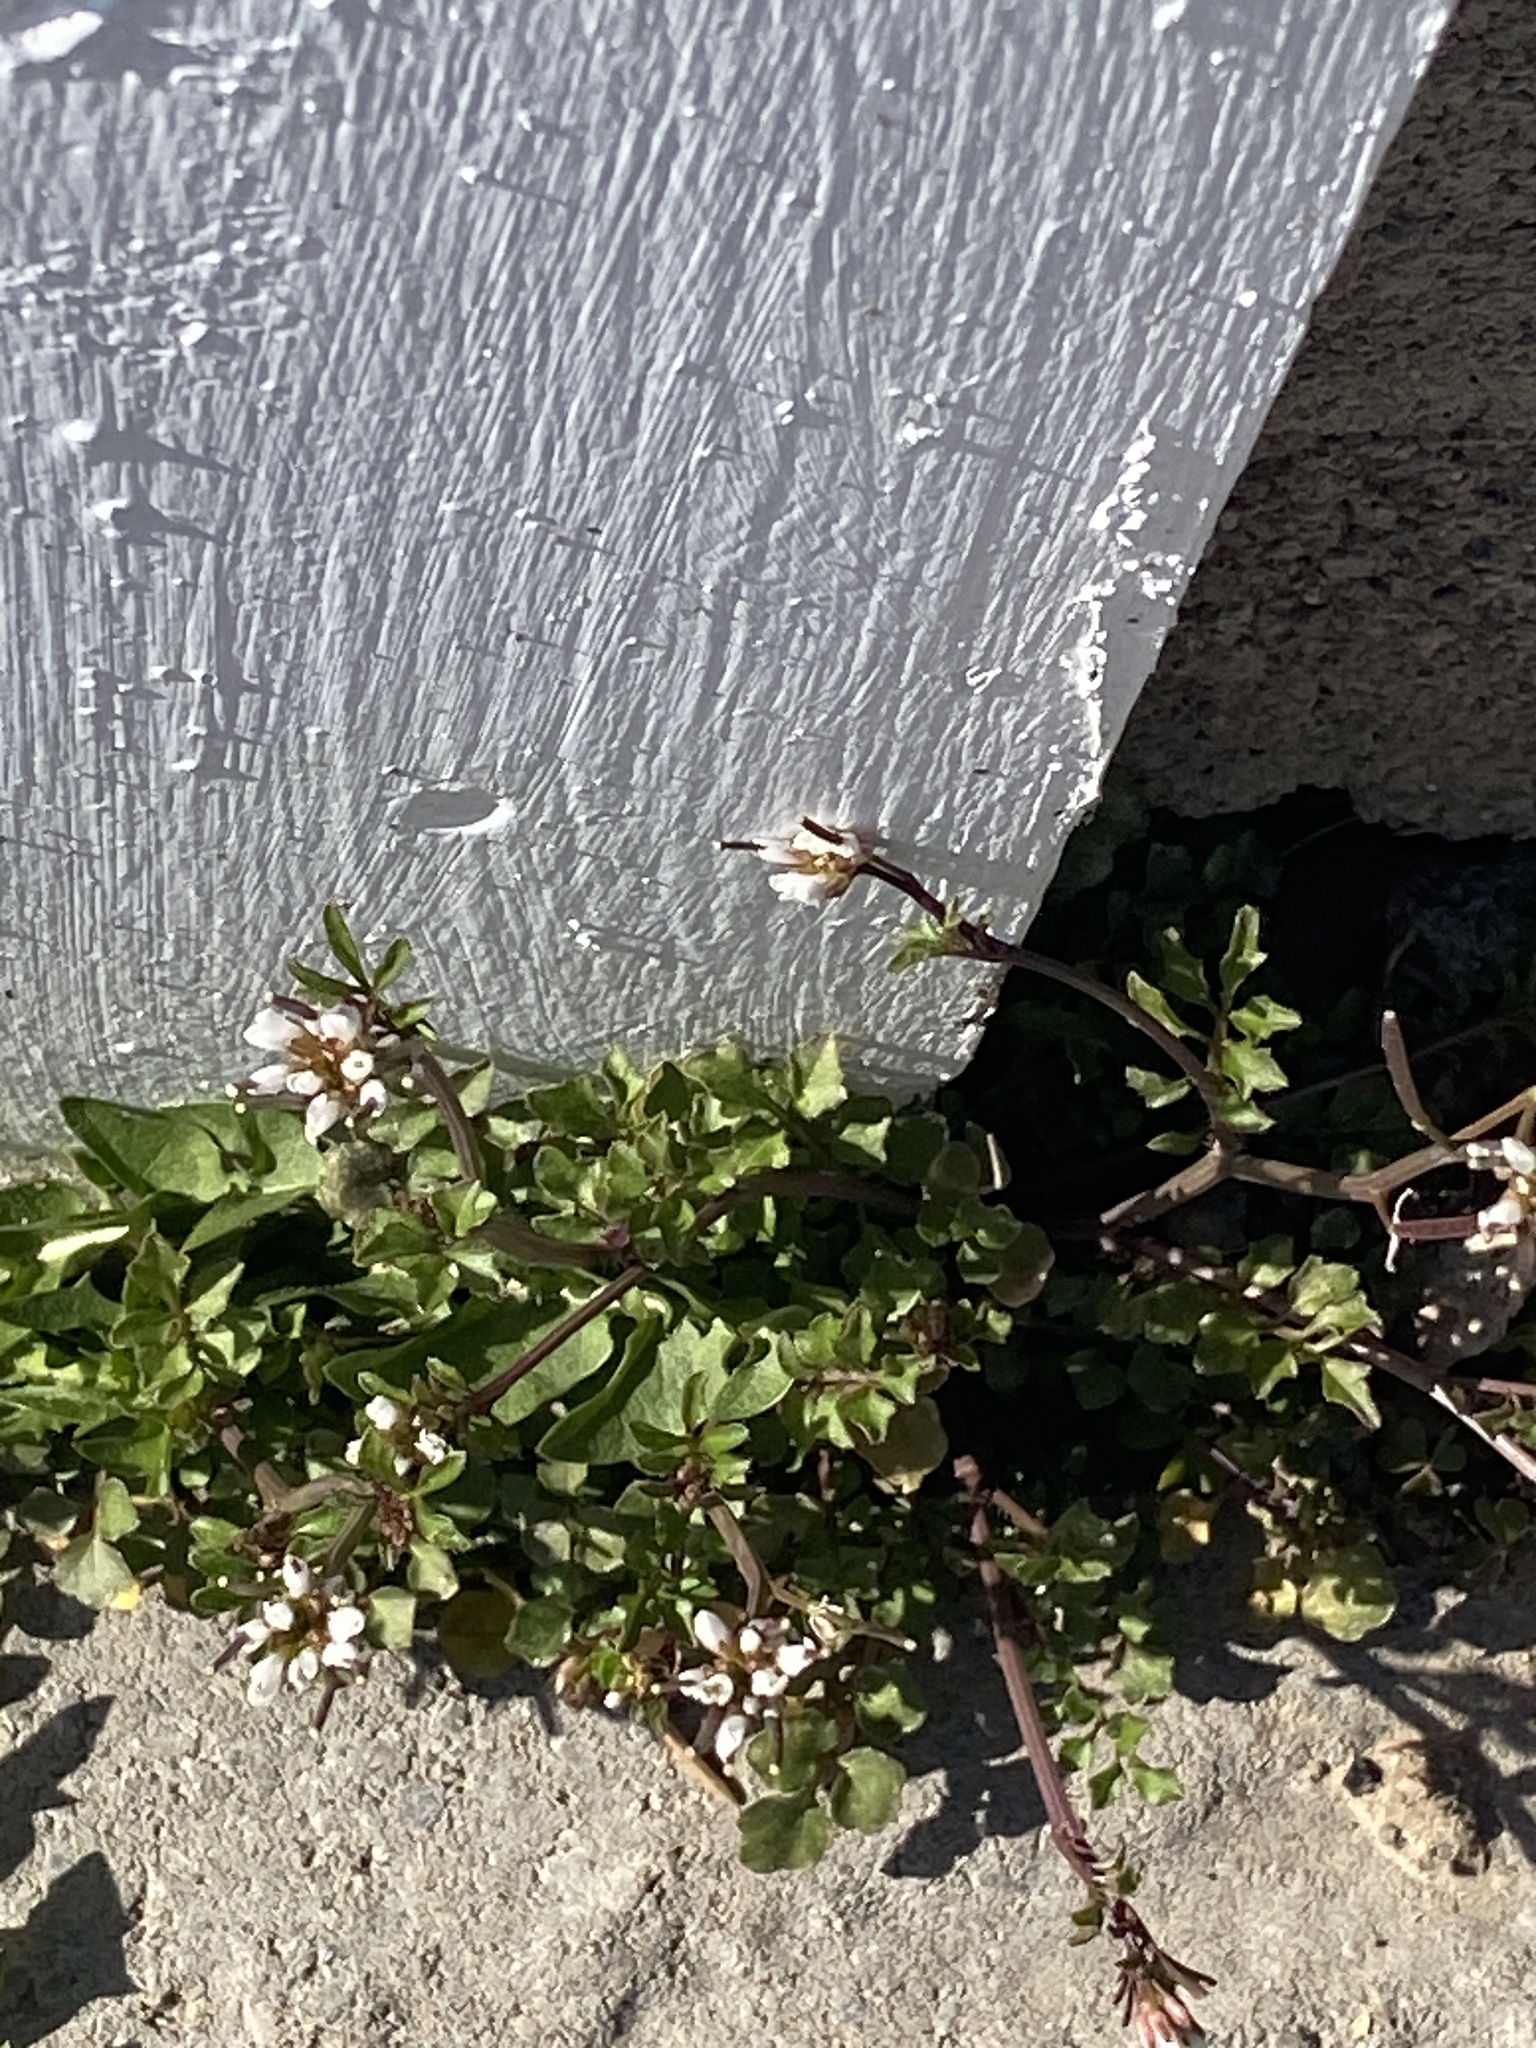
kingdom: Plantae
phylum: Tracheophyta
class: Magnoliopsida
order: Brassicales
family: Brassicaceae
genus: Cardamine
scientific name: Cardamine hirsuta
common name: Hairy bittercress
